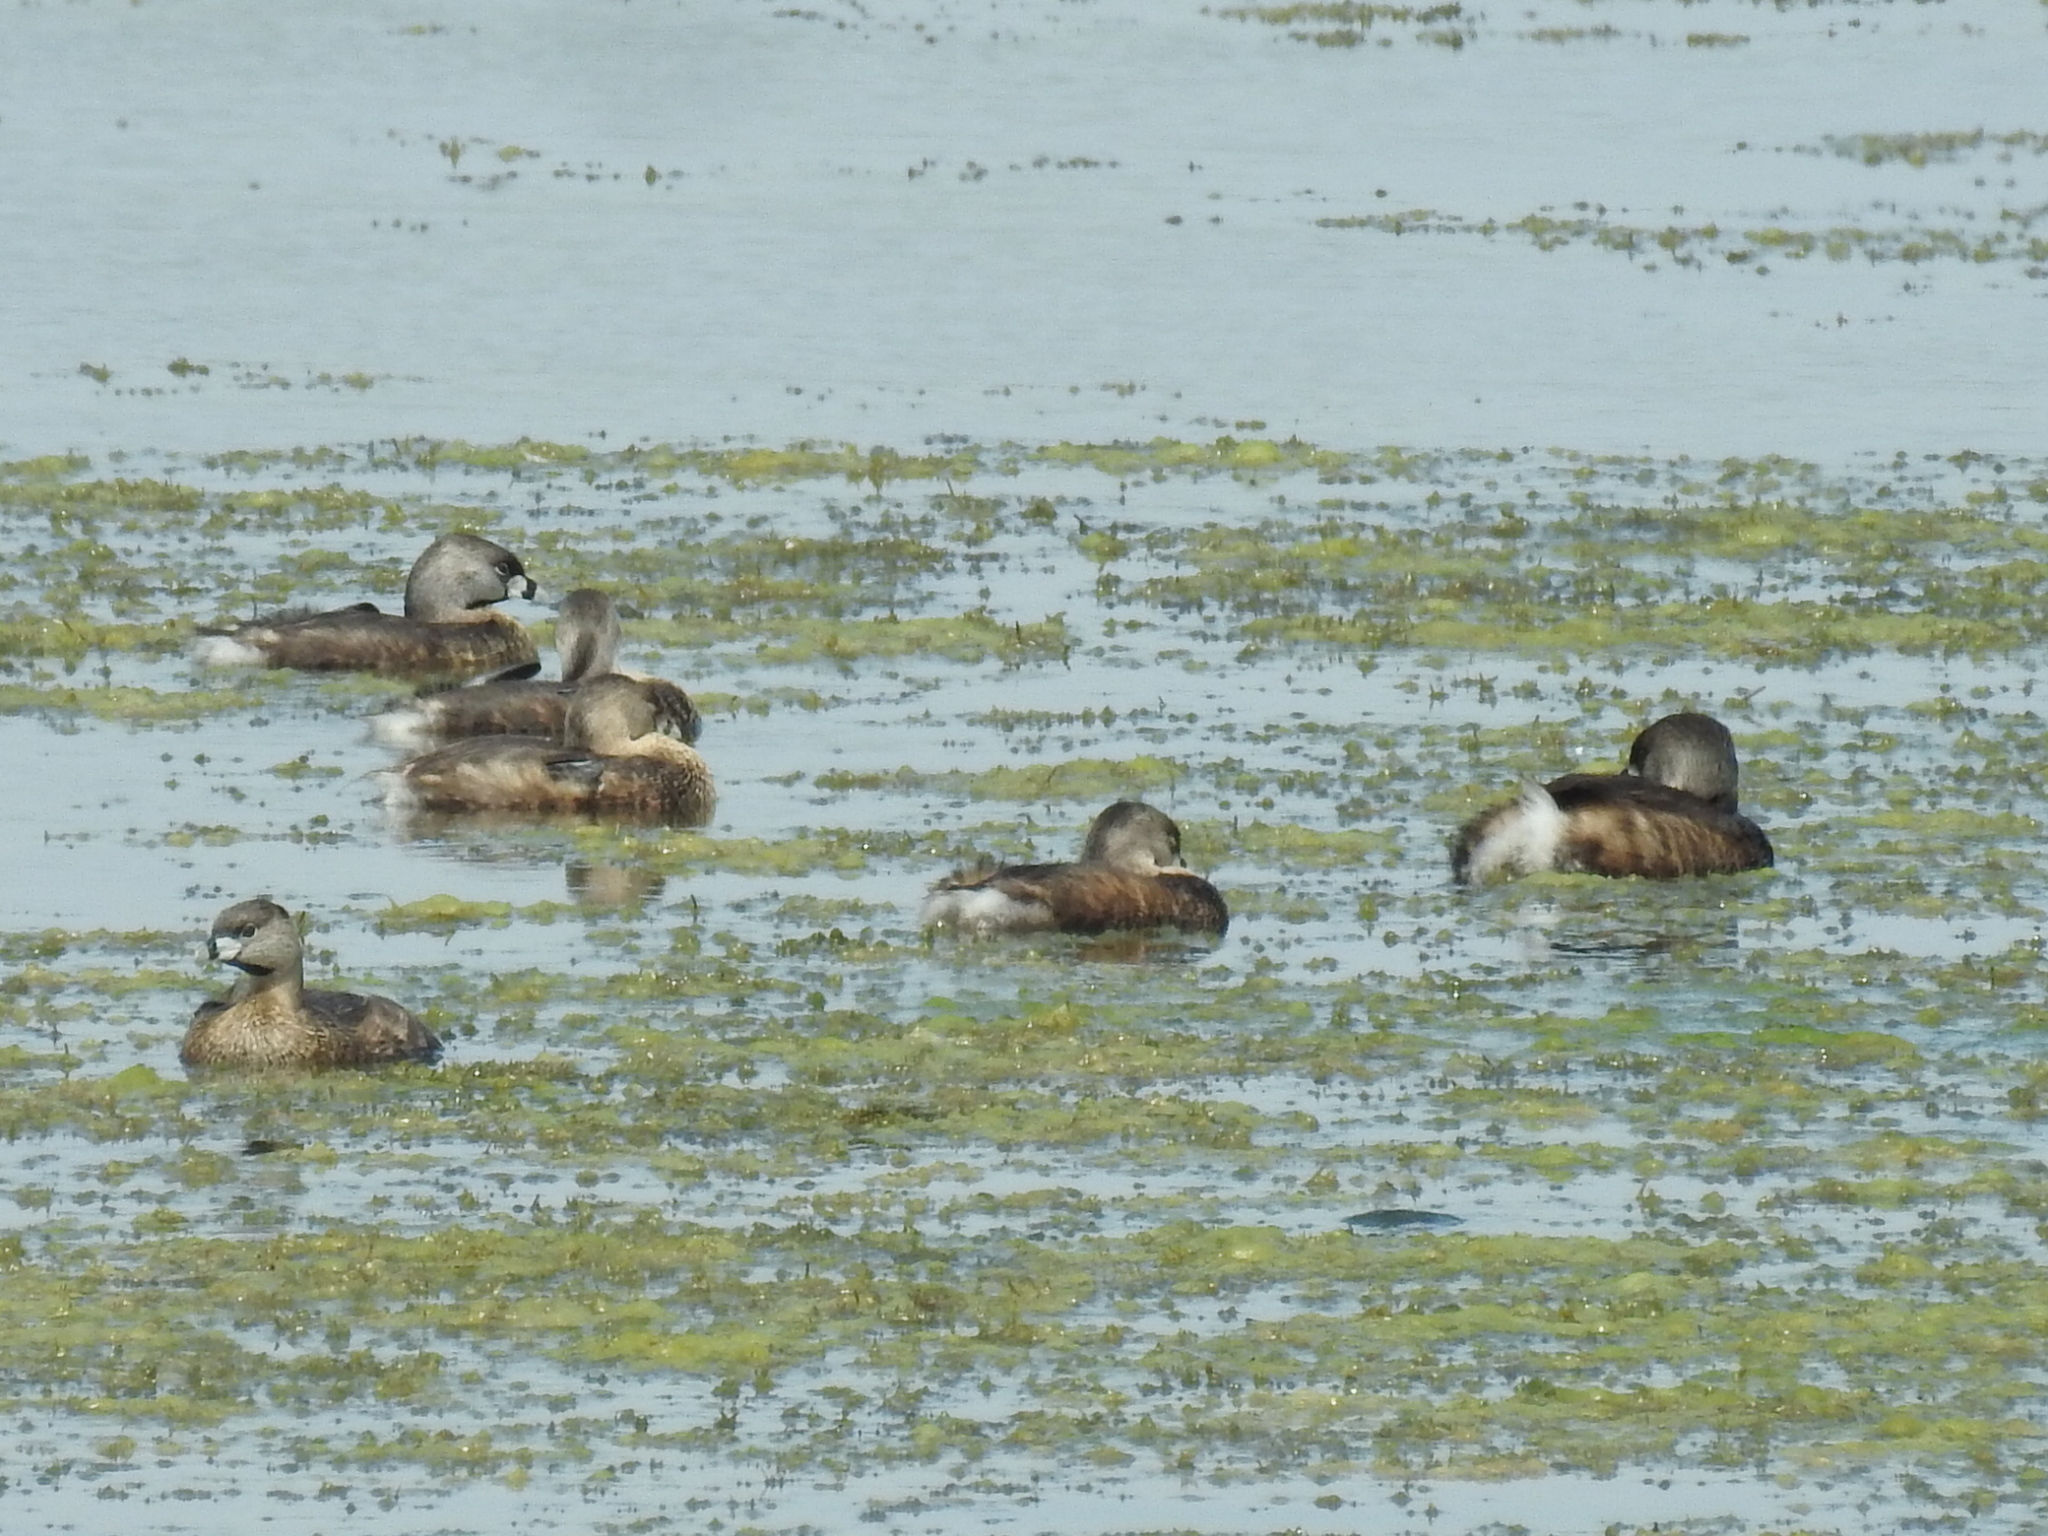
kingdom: Animalia
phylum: Chordata
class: Aves
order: Podicipediformes
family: Podicipedidae
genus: Podilymbus
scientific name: Podilymbus podiceps
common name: Pied-billed grebe
